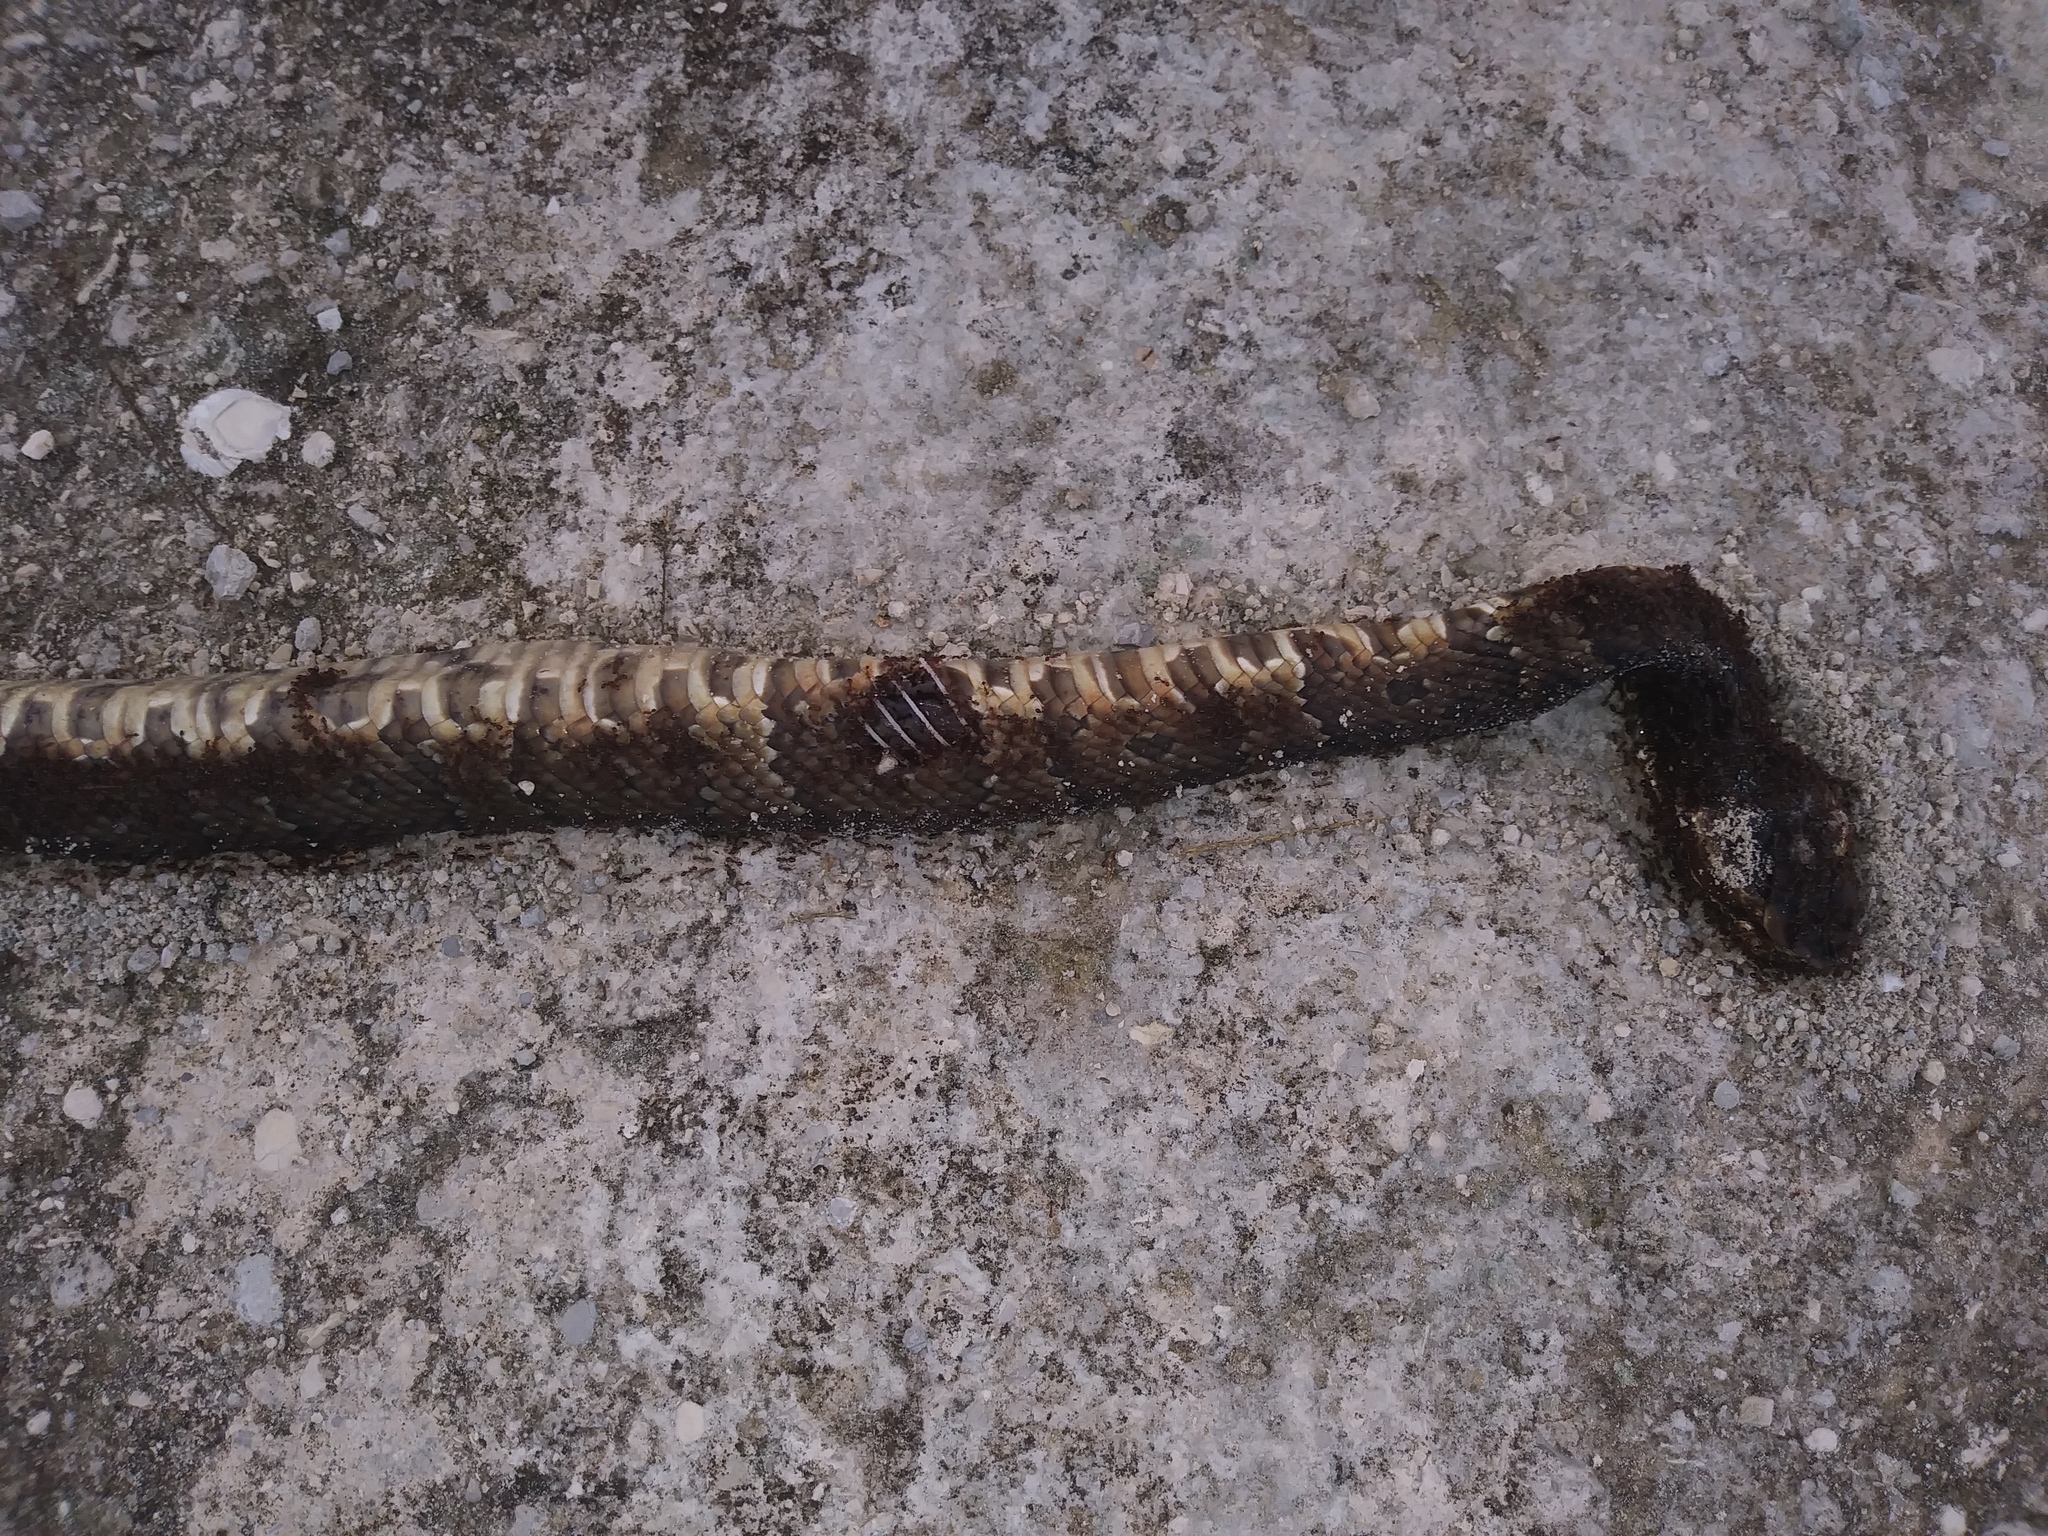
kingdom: Animalia
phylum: Chordata
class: Squamata
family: Viperidae
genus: Agkistrodon
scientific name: Agkistrodon conanti
